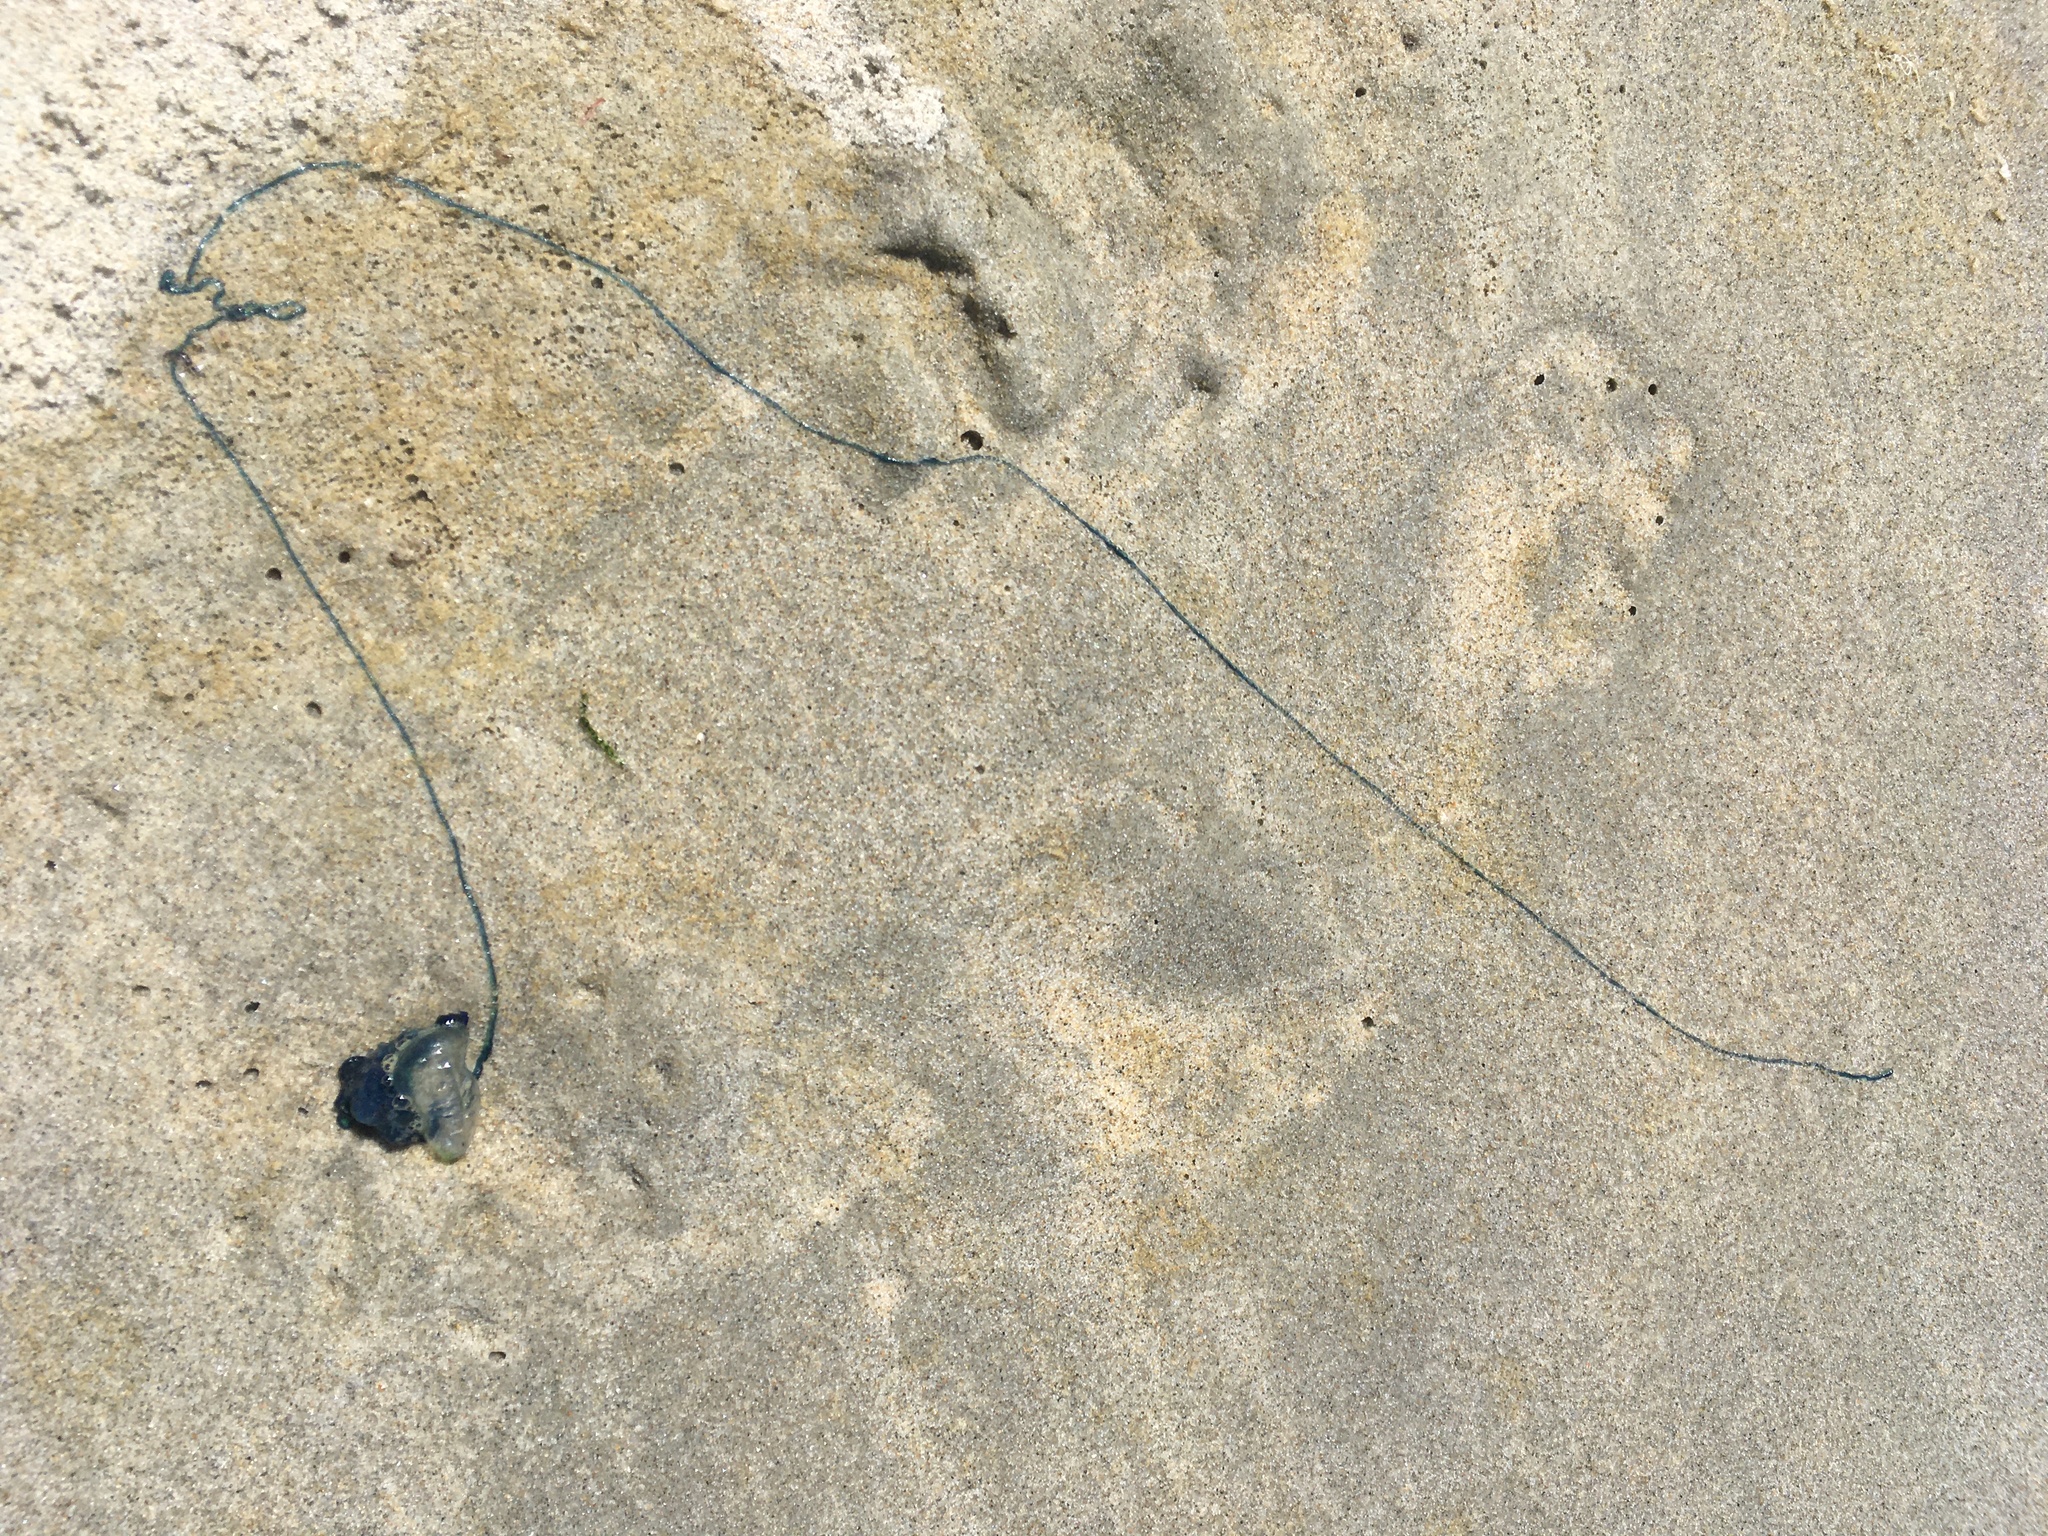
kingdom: Animalia
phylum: Cnidaria
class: Hydrozoa
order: Siphonophorae
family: Physaliidae
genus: Physalia
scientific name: Physalia physalis
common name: Portuguese man-of-war
